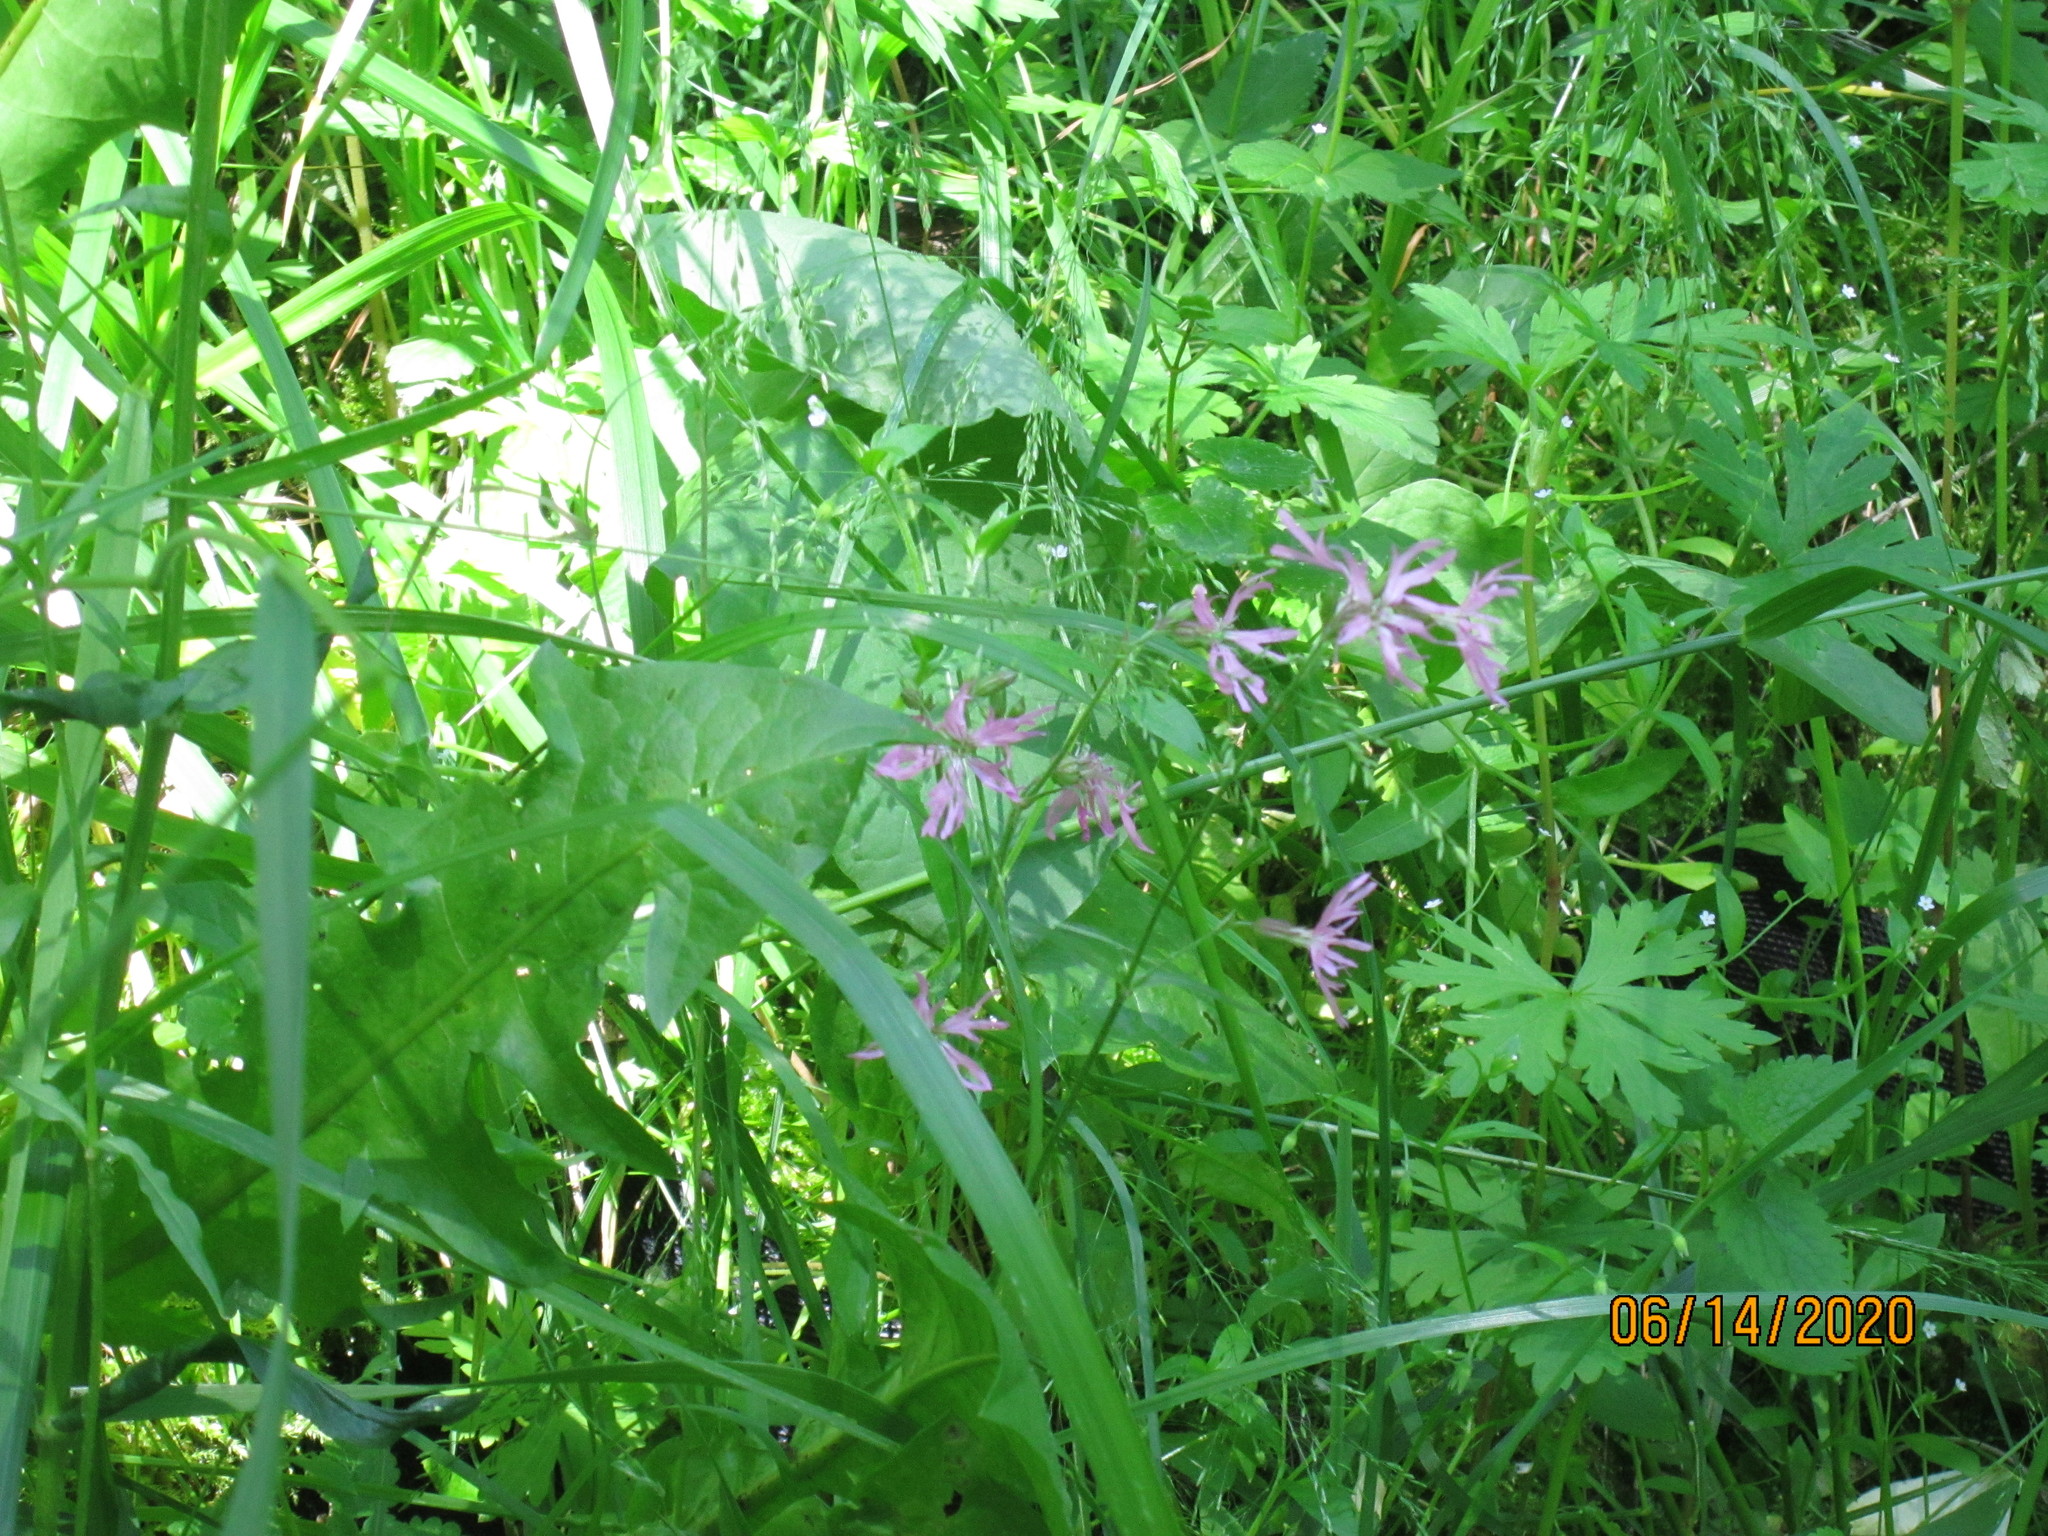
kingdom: Plantae
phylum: Tracheophyta
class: Magnoliopsida
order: Caryophyllales
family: Caryophyllaceae
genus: Silene
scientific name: Silene flos-cuculi
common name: Ragged-robin
